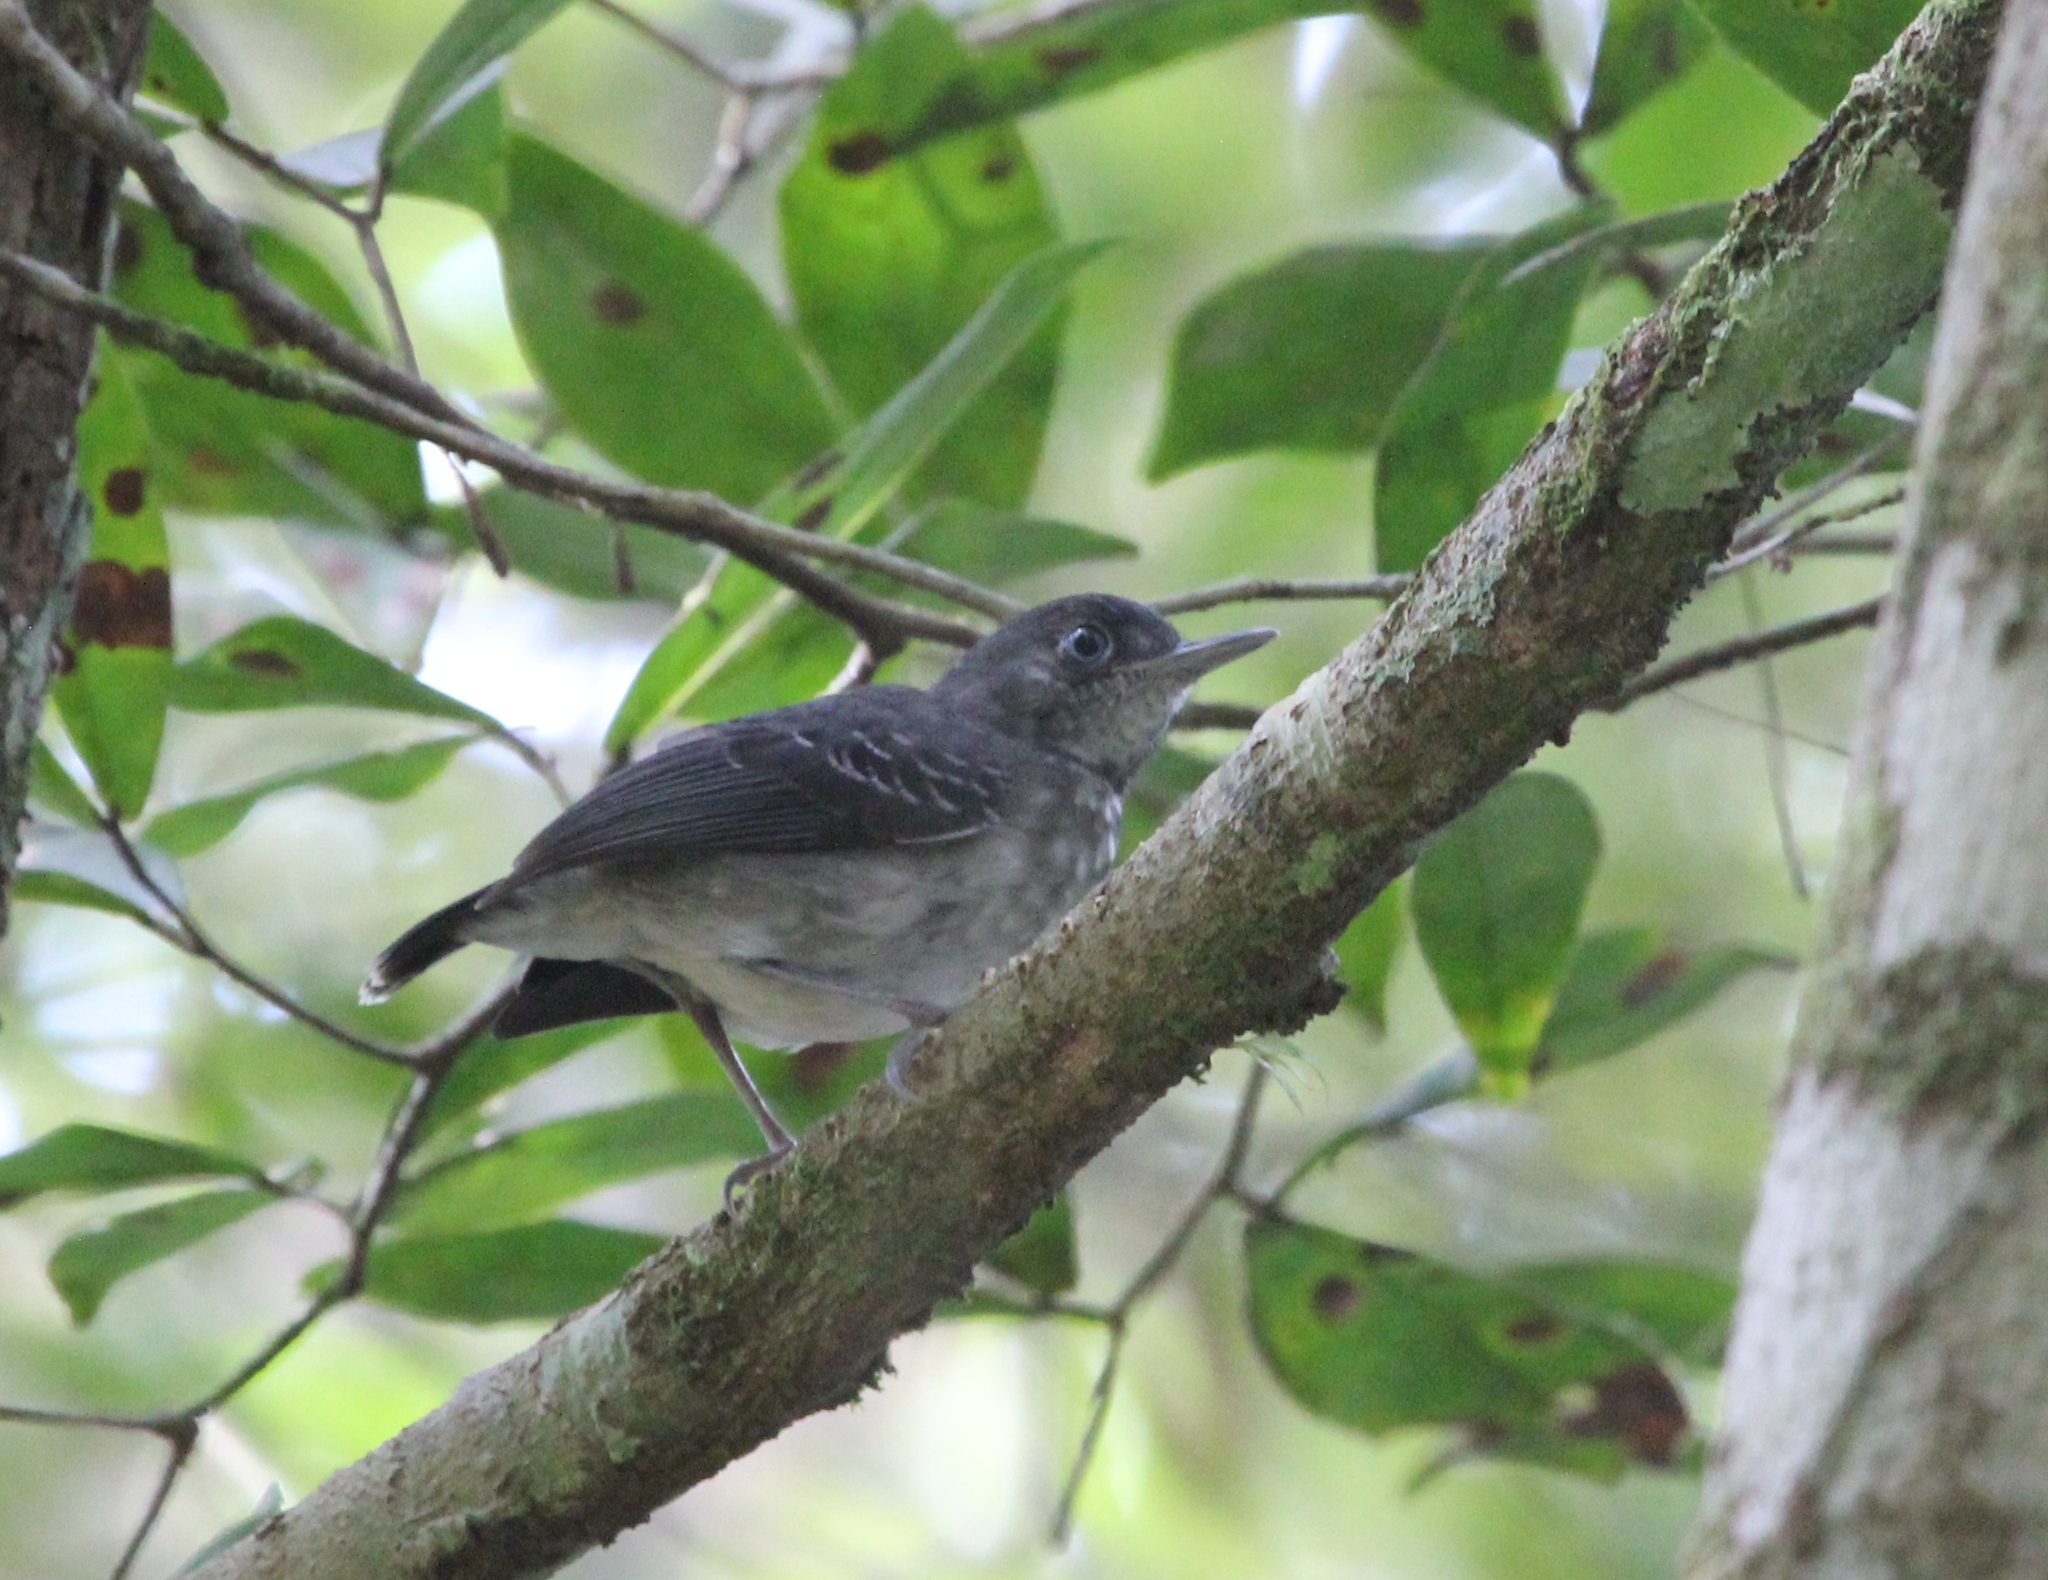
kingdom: Animalia
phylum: Chordata
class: Aves
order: Passeriformes
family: Thamnophilidae
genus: Hypocnemoides
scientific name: Hypocnemoides melanopogon
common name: Black-chinned antbird
